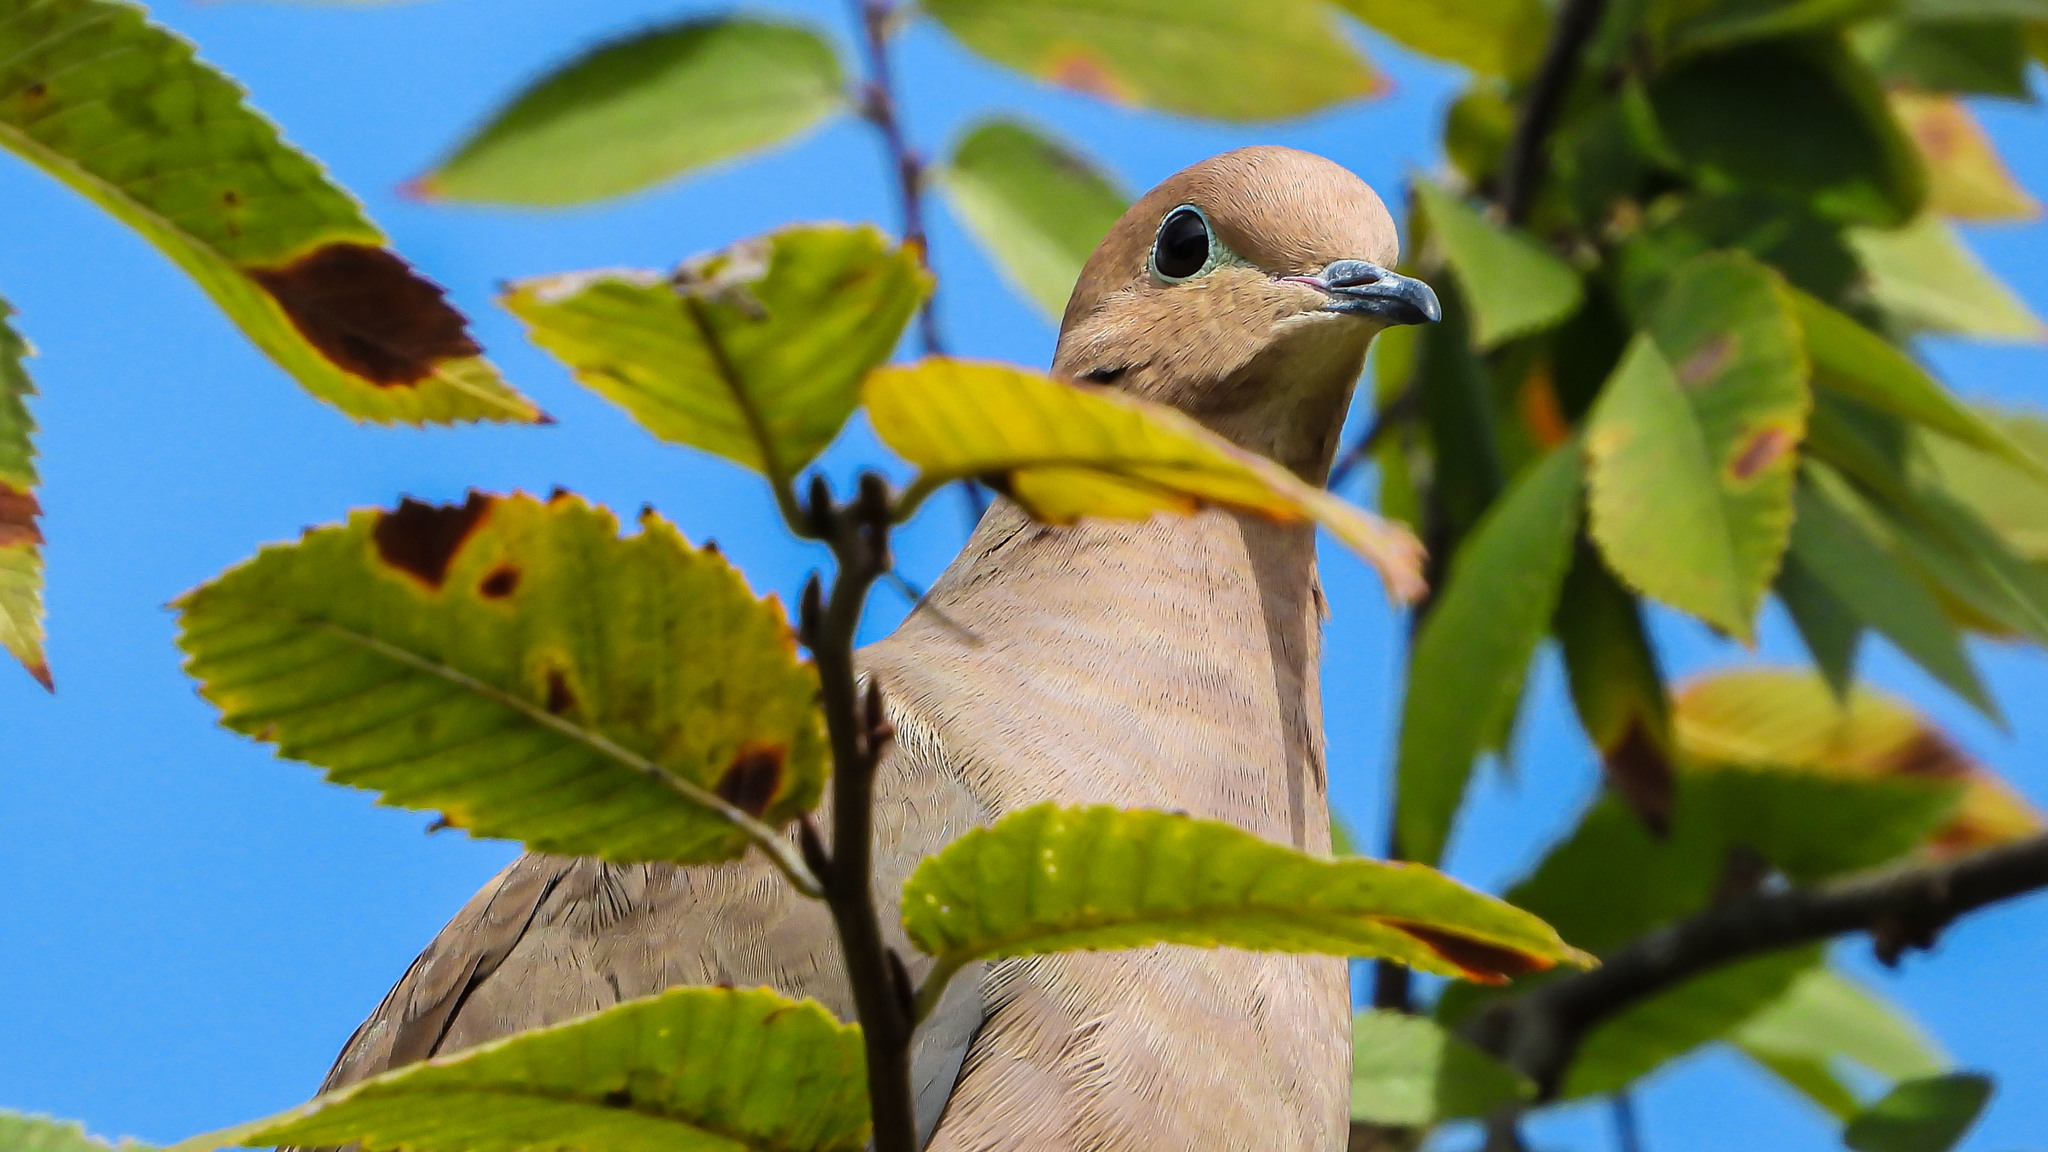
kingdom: Animalia
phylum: Chordata
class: Aves
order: Columbiformes
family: Columbidae
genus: Zenaida
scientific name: Zenaida macroura
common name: Mourning dove
